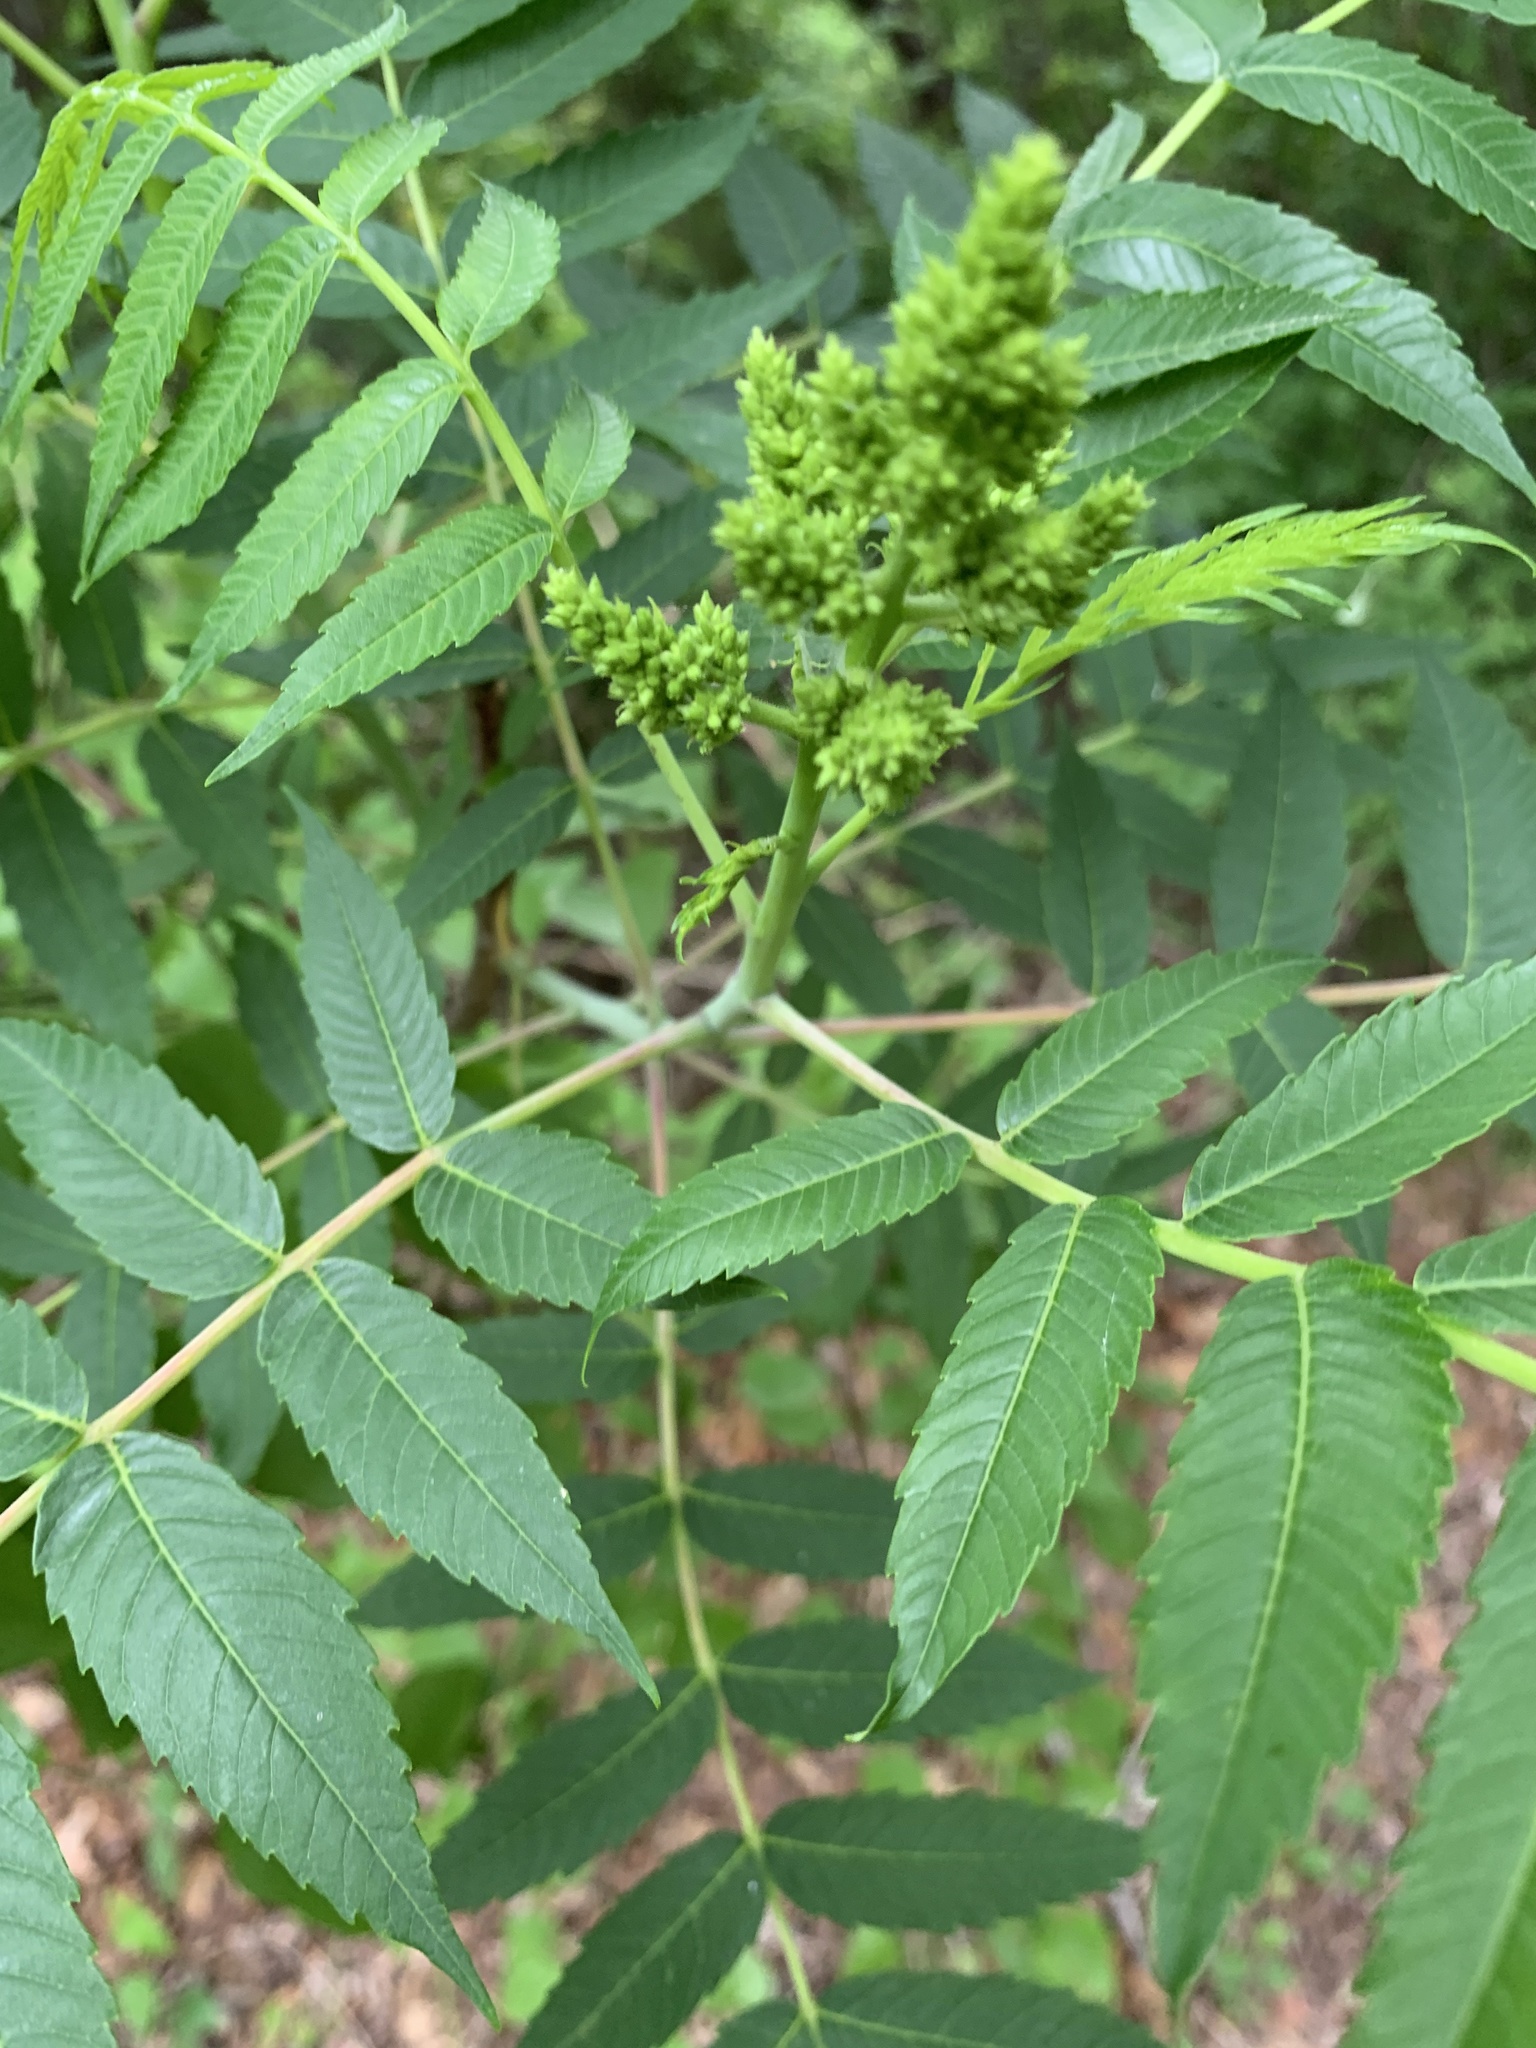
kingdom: Plantae
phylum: Tracheophyta
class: Magnoliopsida
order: Sapindales
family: Anacardiaceae
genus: Rhus
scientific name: Rhus glabra
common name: Scarlet sumac
